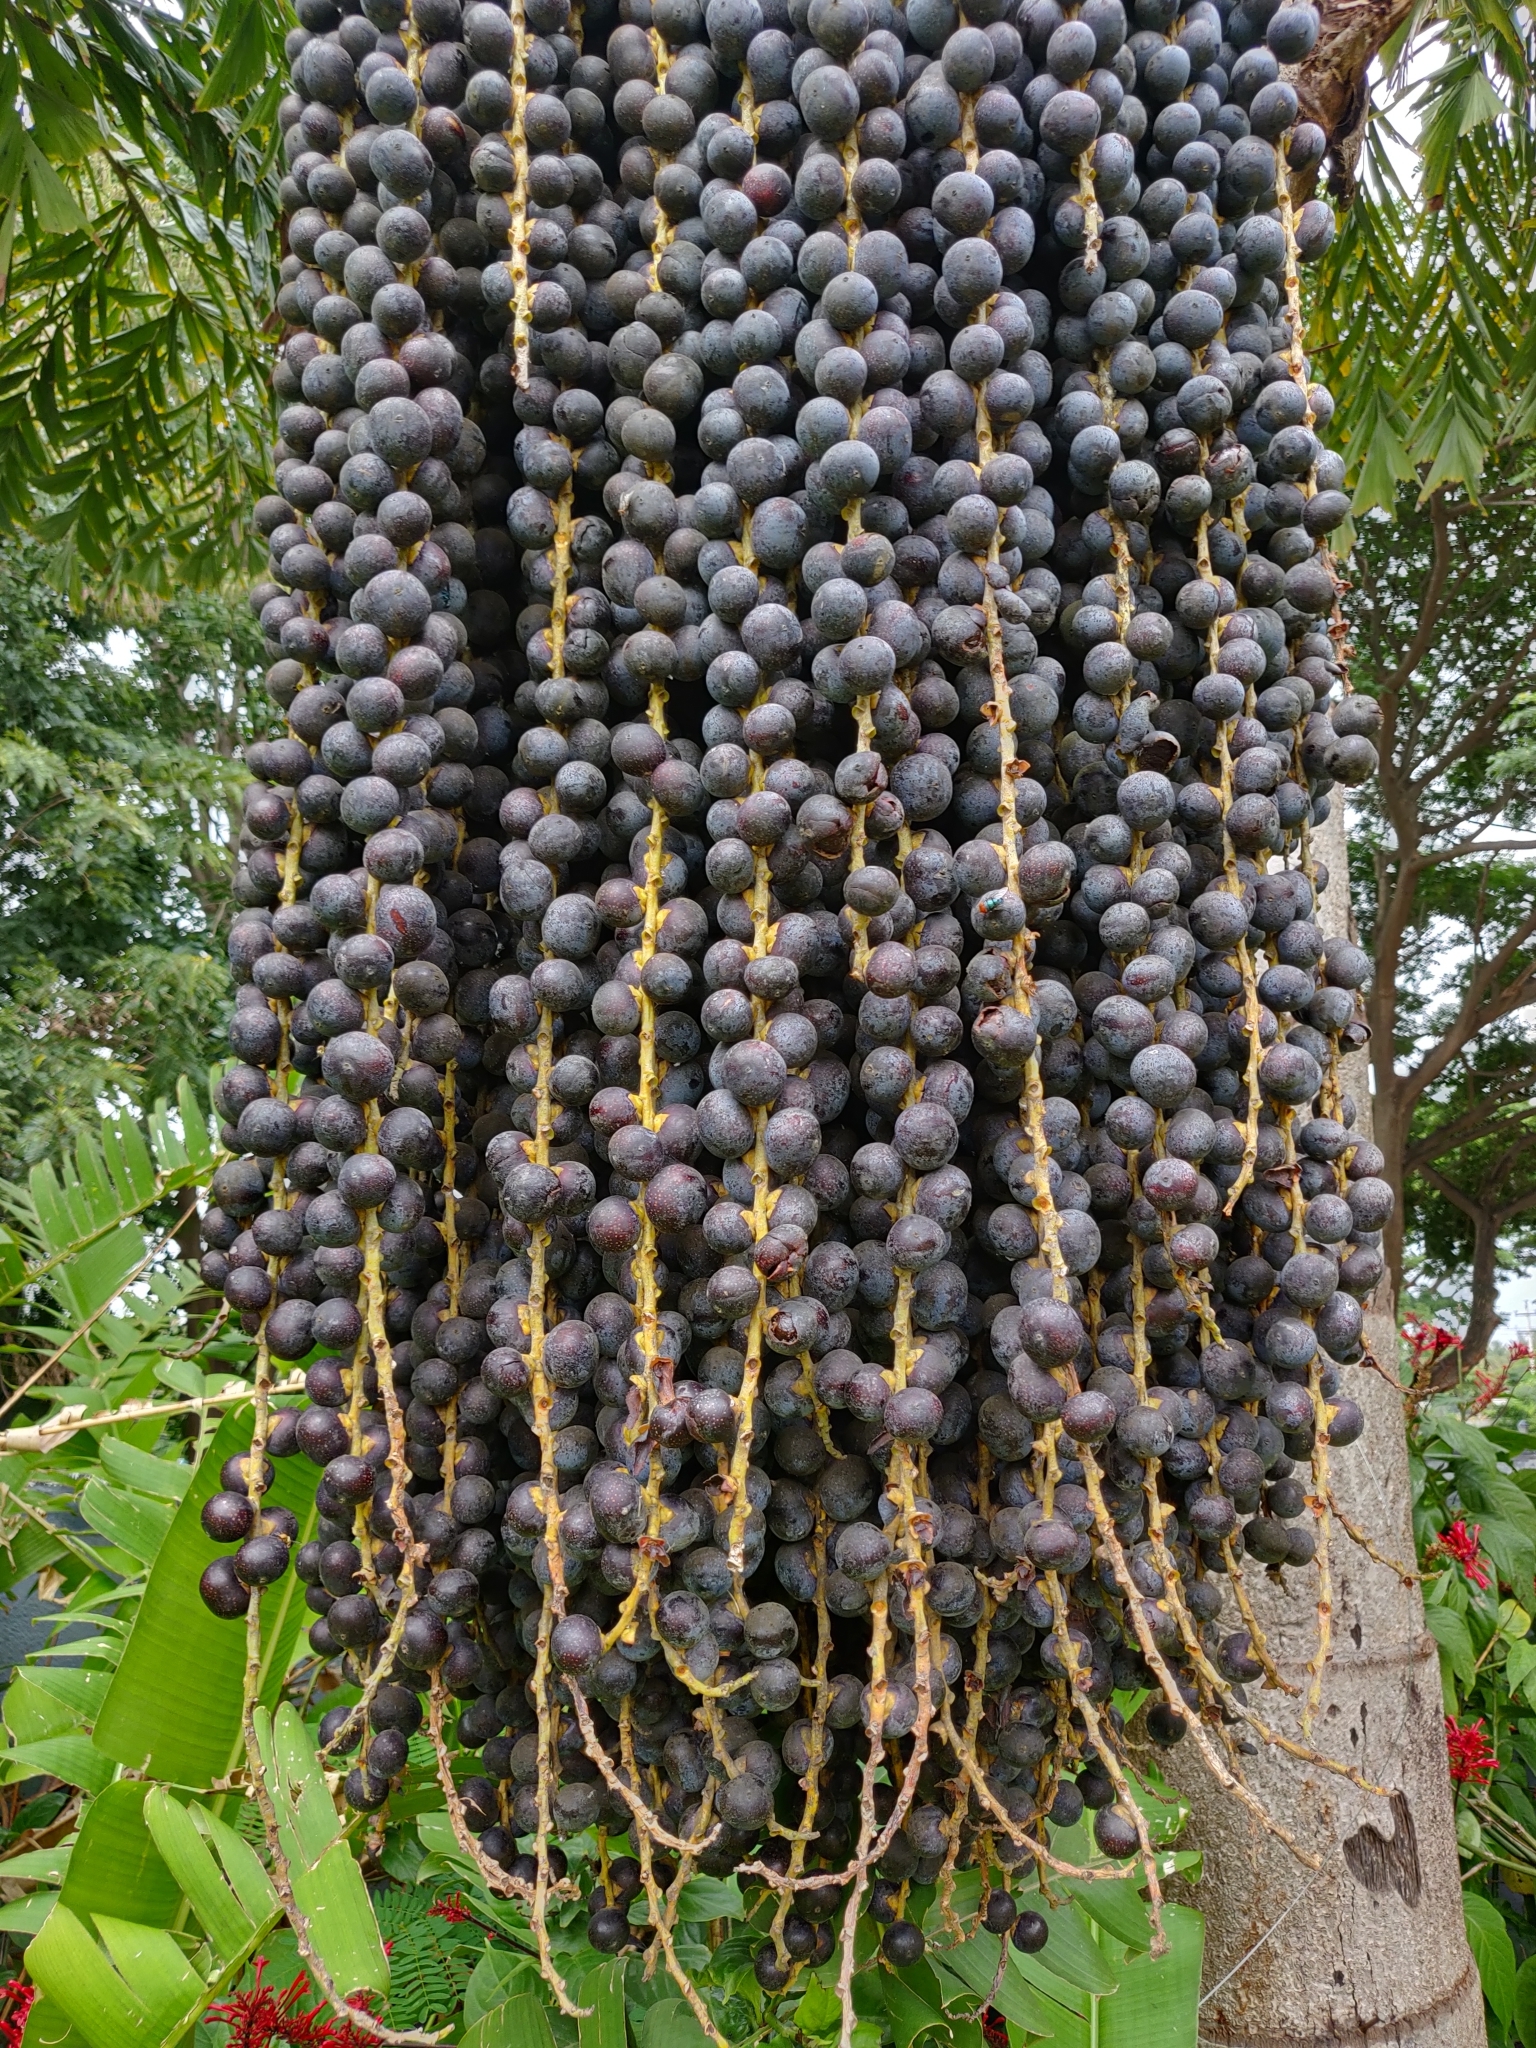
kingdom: Plantae
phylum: Tracheophyta
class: Liliopsida
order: Arecales
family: Arecaceae
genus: Caryota
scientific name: Caryota urens
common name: Jaggery palm
